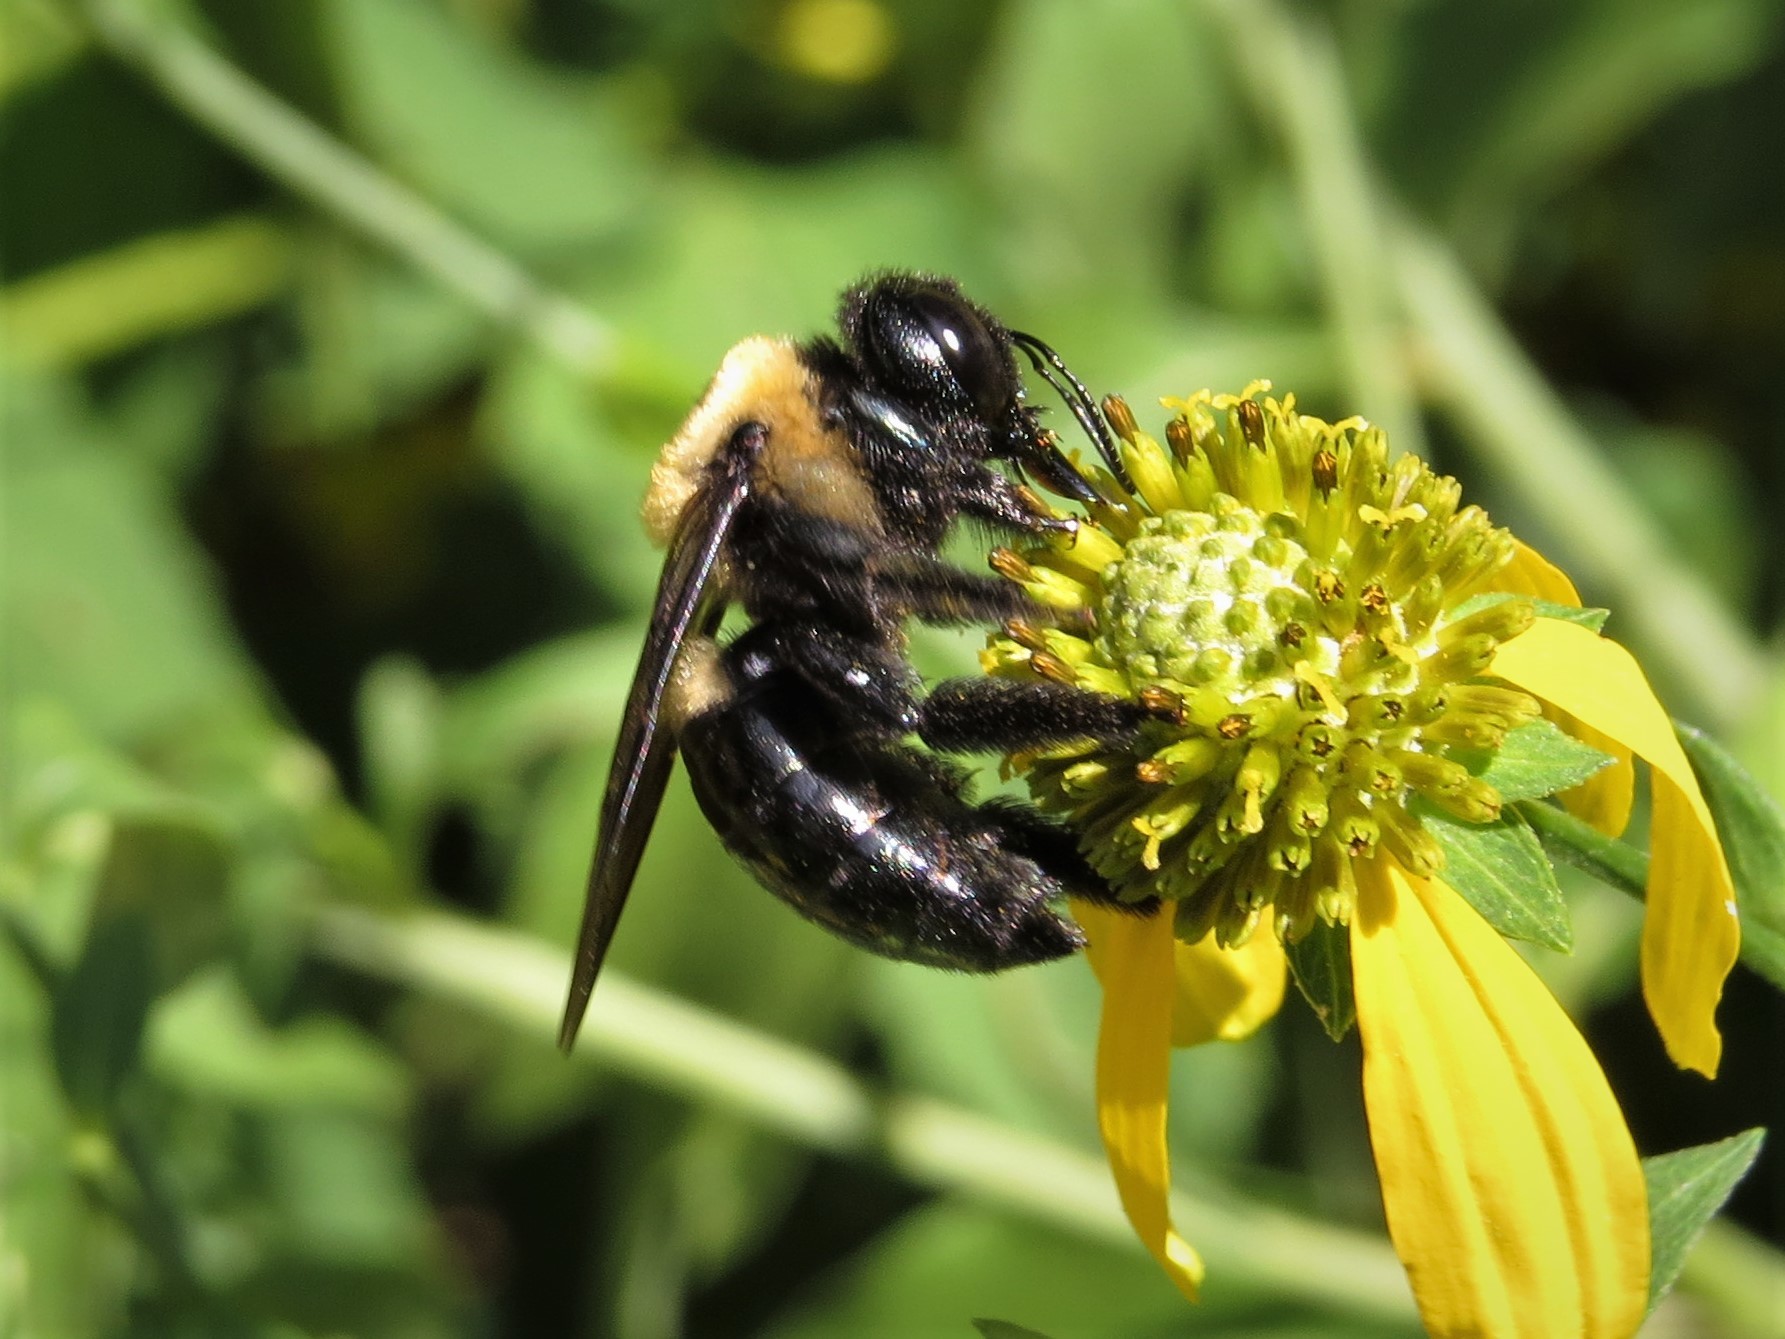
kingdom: Animalia
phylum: Arthropoda
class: Insecta
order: Hymenoptera
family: Apidae
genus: Xylocopa
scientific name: Xylocopa virginica
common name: Carpenter bee
